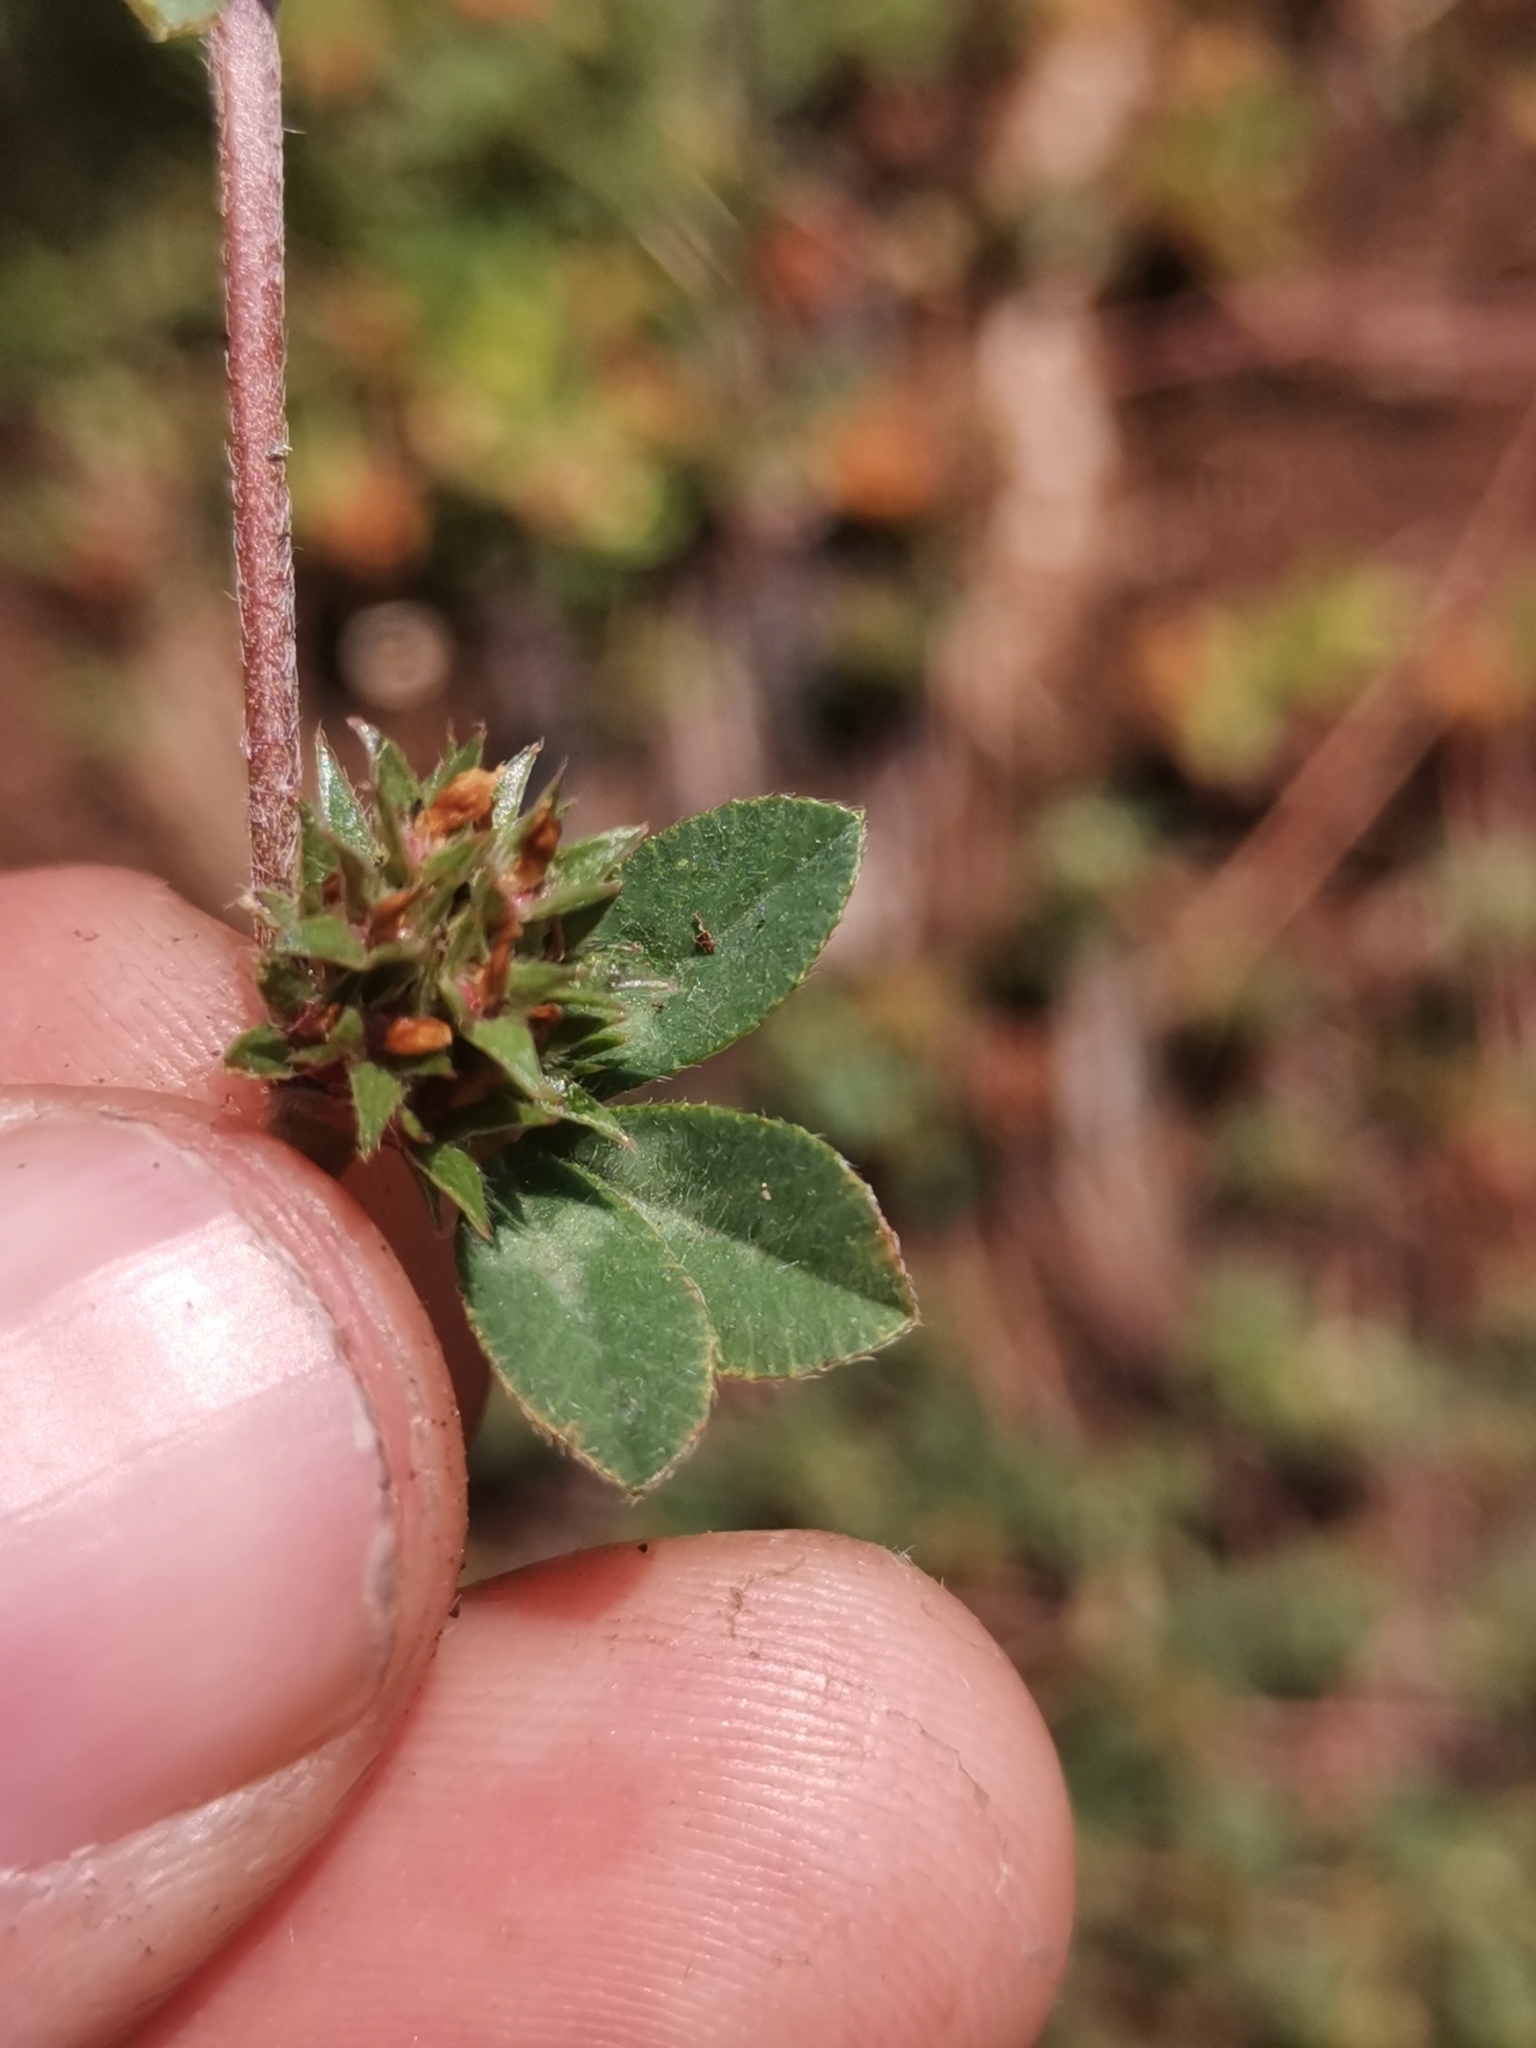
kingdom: Plantae
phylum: Tracheophyta
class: Magnoliopsida
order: Fabales
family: Fabaceae
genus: Trifolium
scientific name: Trifolium scabrum
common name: Rough clover
